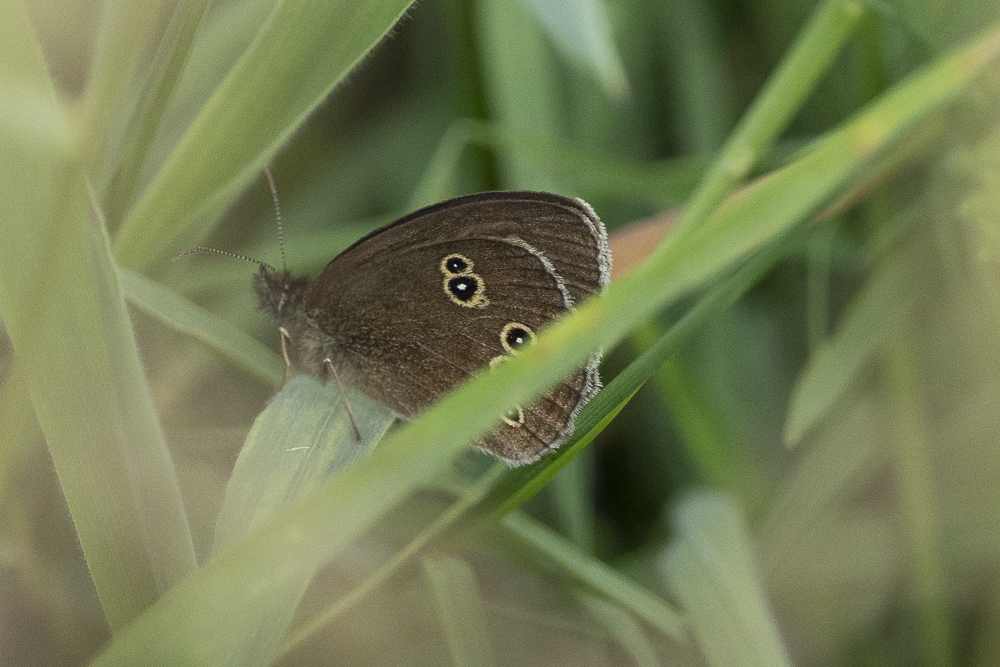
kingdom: Animalia
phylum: Arthropoda
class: Insecta
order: Lepidoptera
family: Nymphalidae
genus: Aphantopus
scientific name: Aphantopus hyperantus
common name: Ringlet
